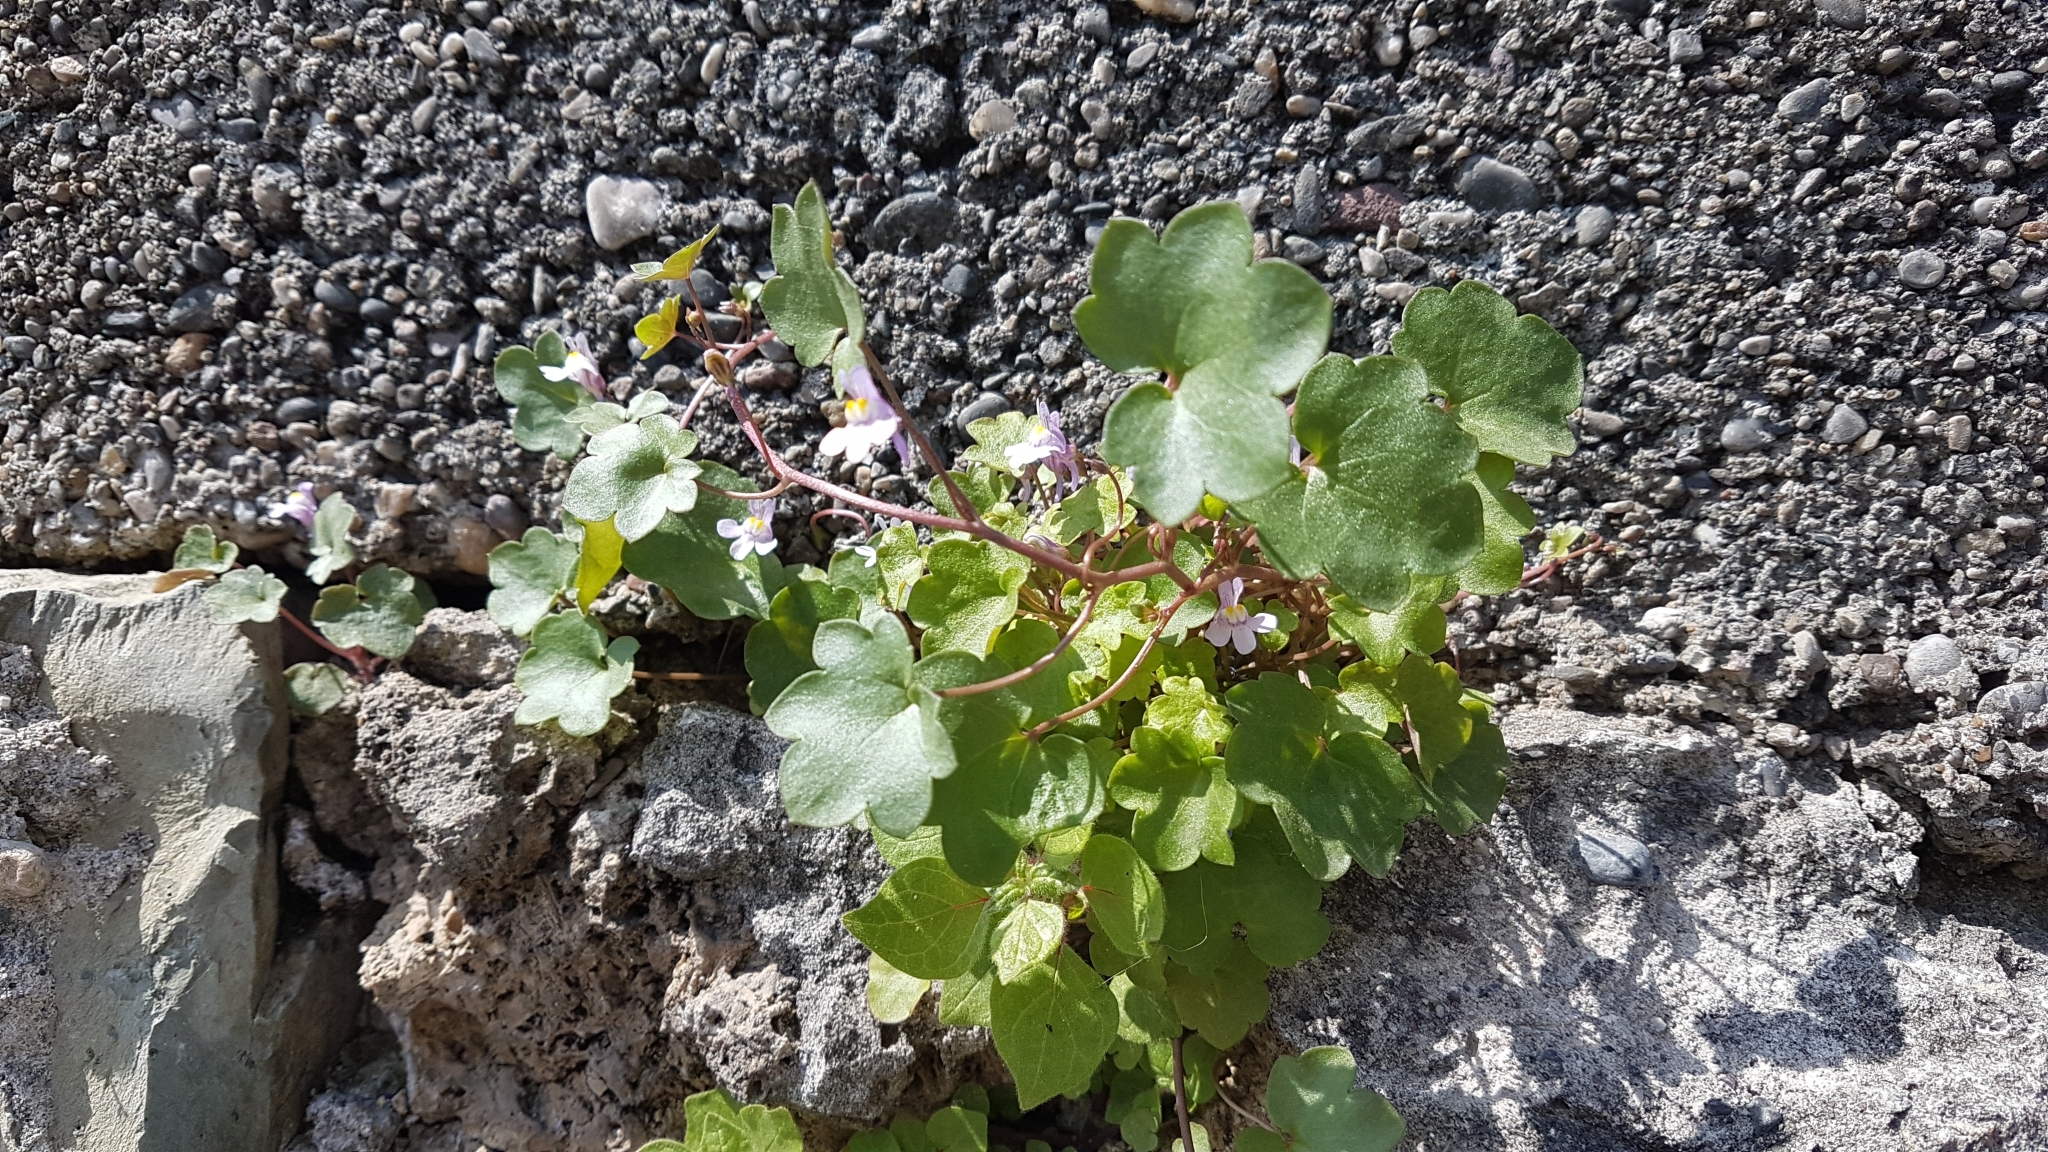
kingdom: Plantae
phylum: Tracheophyta
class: Magnoliopsida
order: Lamiales
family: Plantaginaceae
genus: Cymbalaria
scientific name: Cymbalaria muralis
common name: Ivy-leaved toadflax
